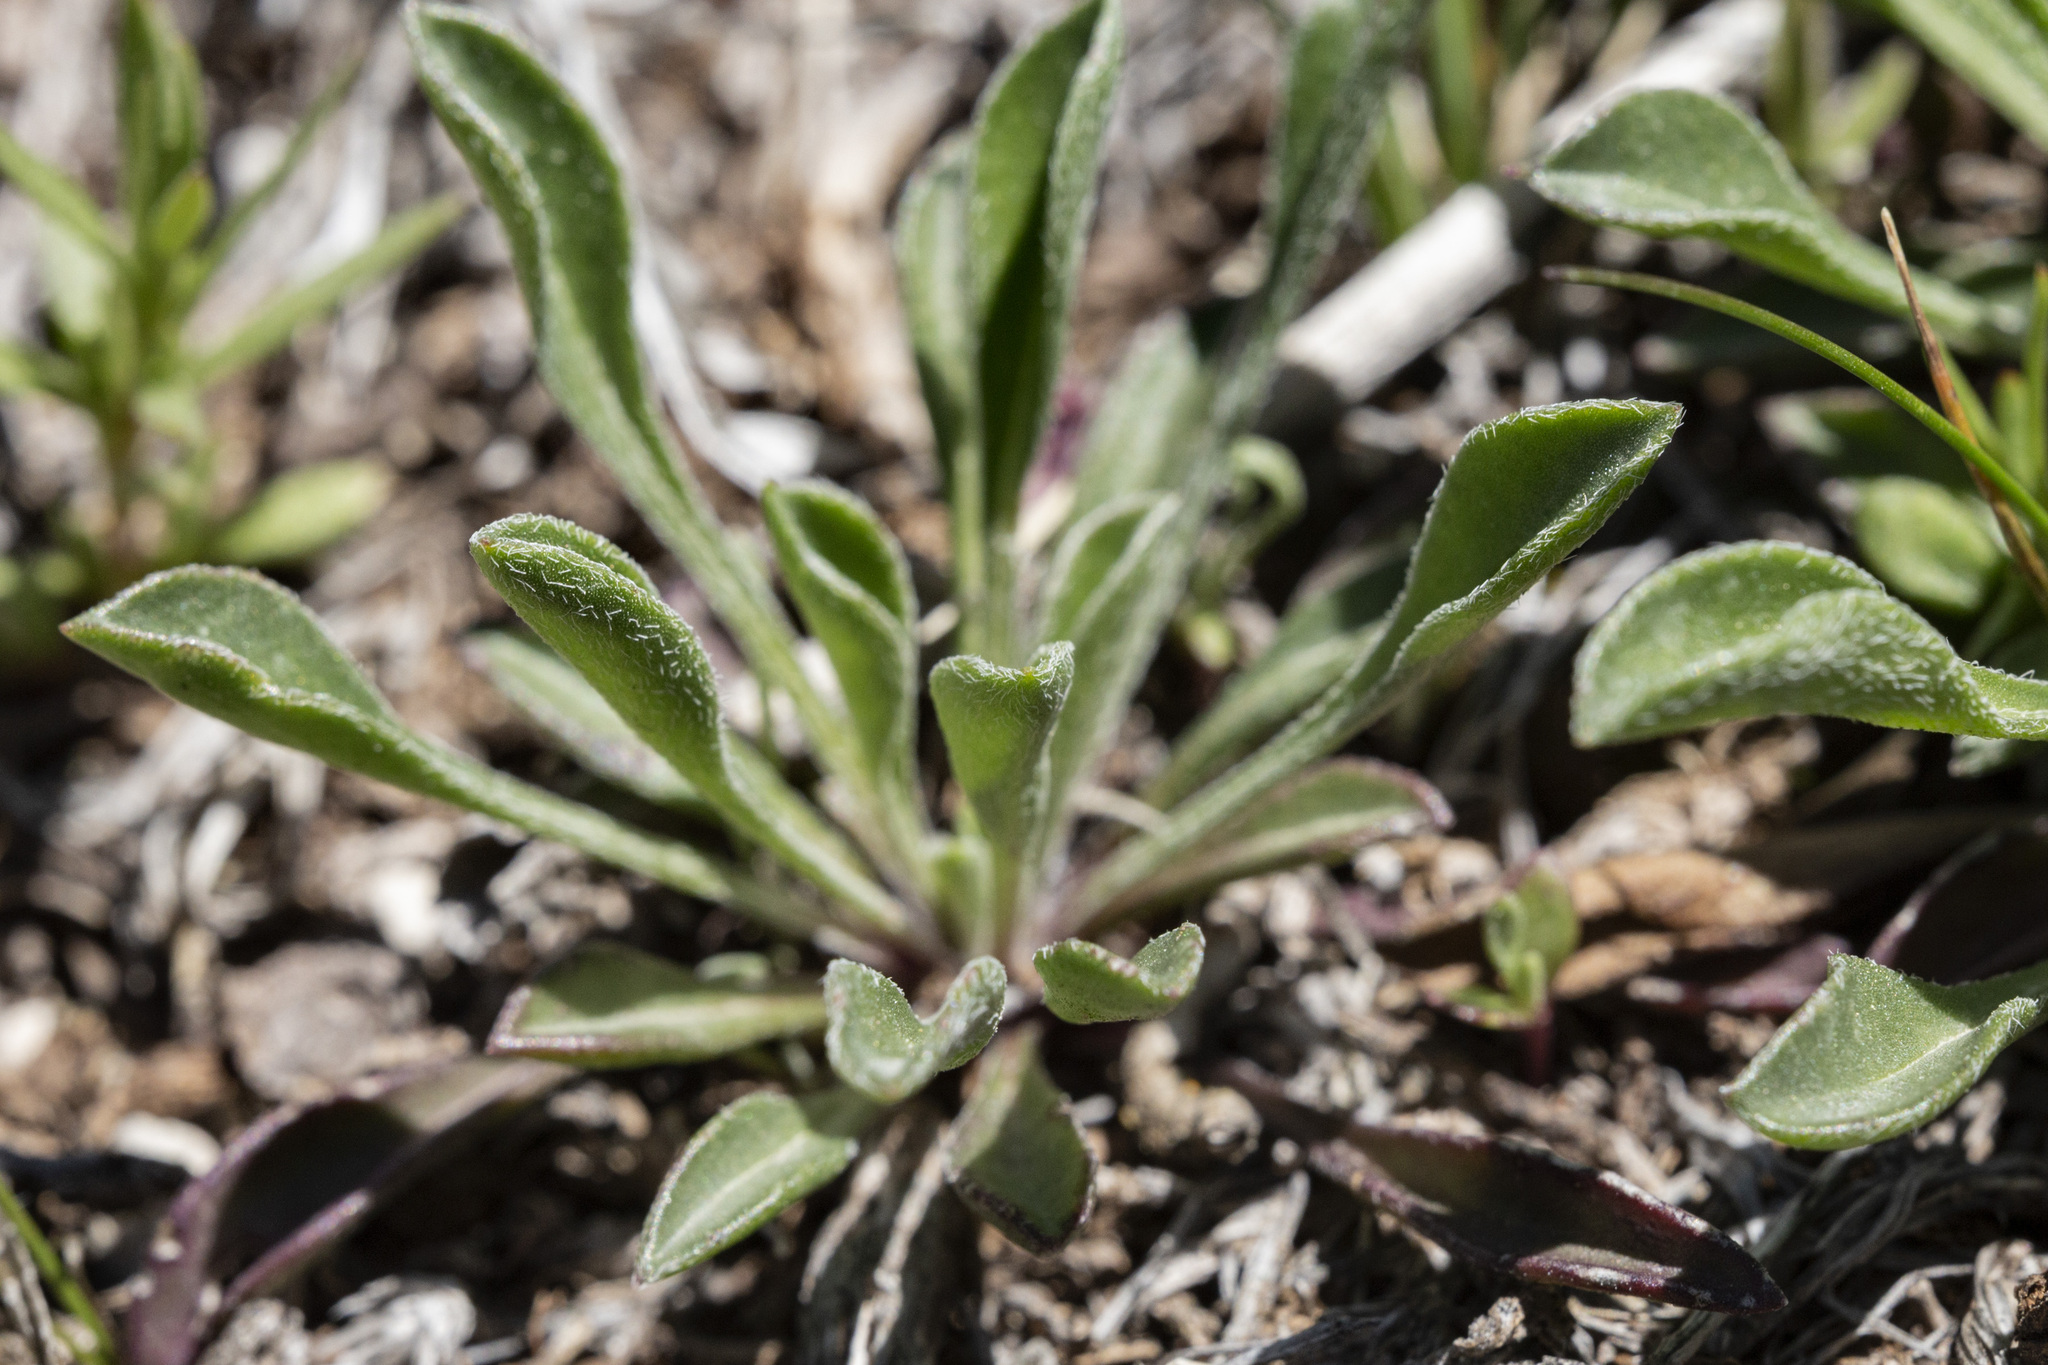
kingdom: Plantae
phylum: Tracheophyta
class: Magnoliopsida
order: Asterales
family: Asteraceae
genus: Townsendia
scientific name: Townsendia parryi
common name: Parry's townsend daisy
